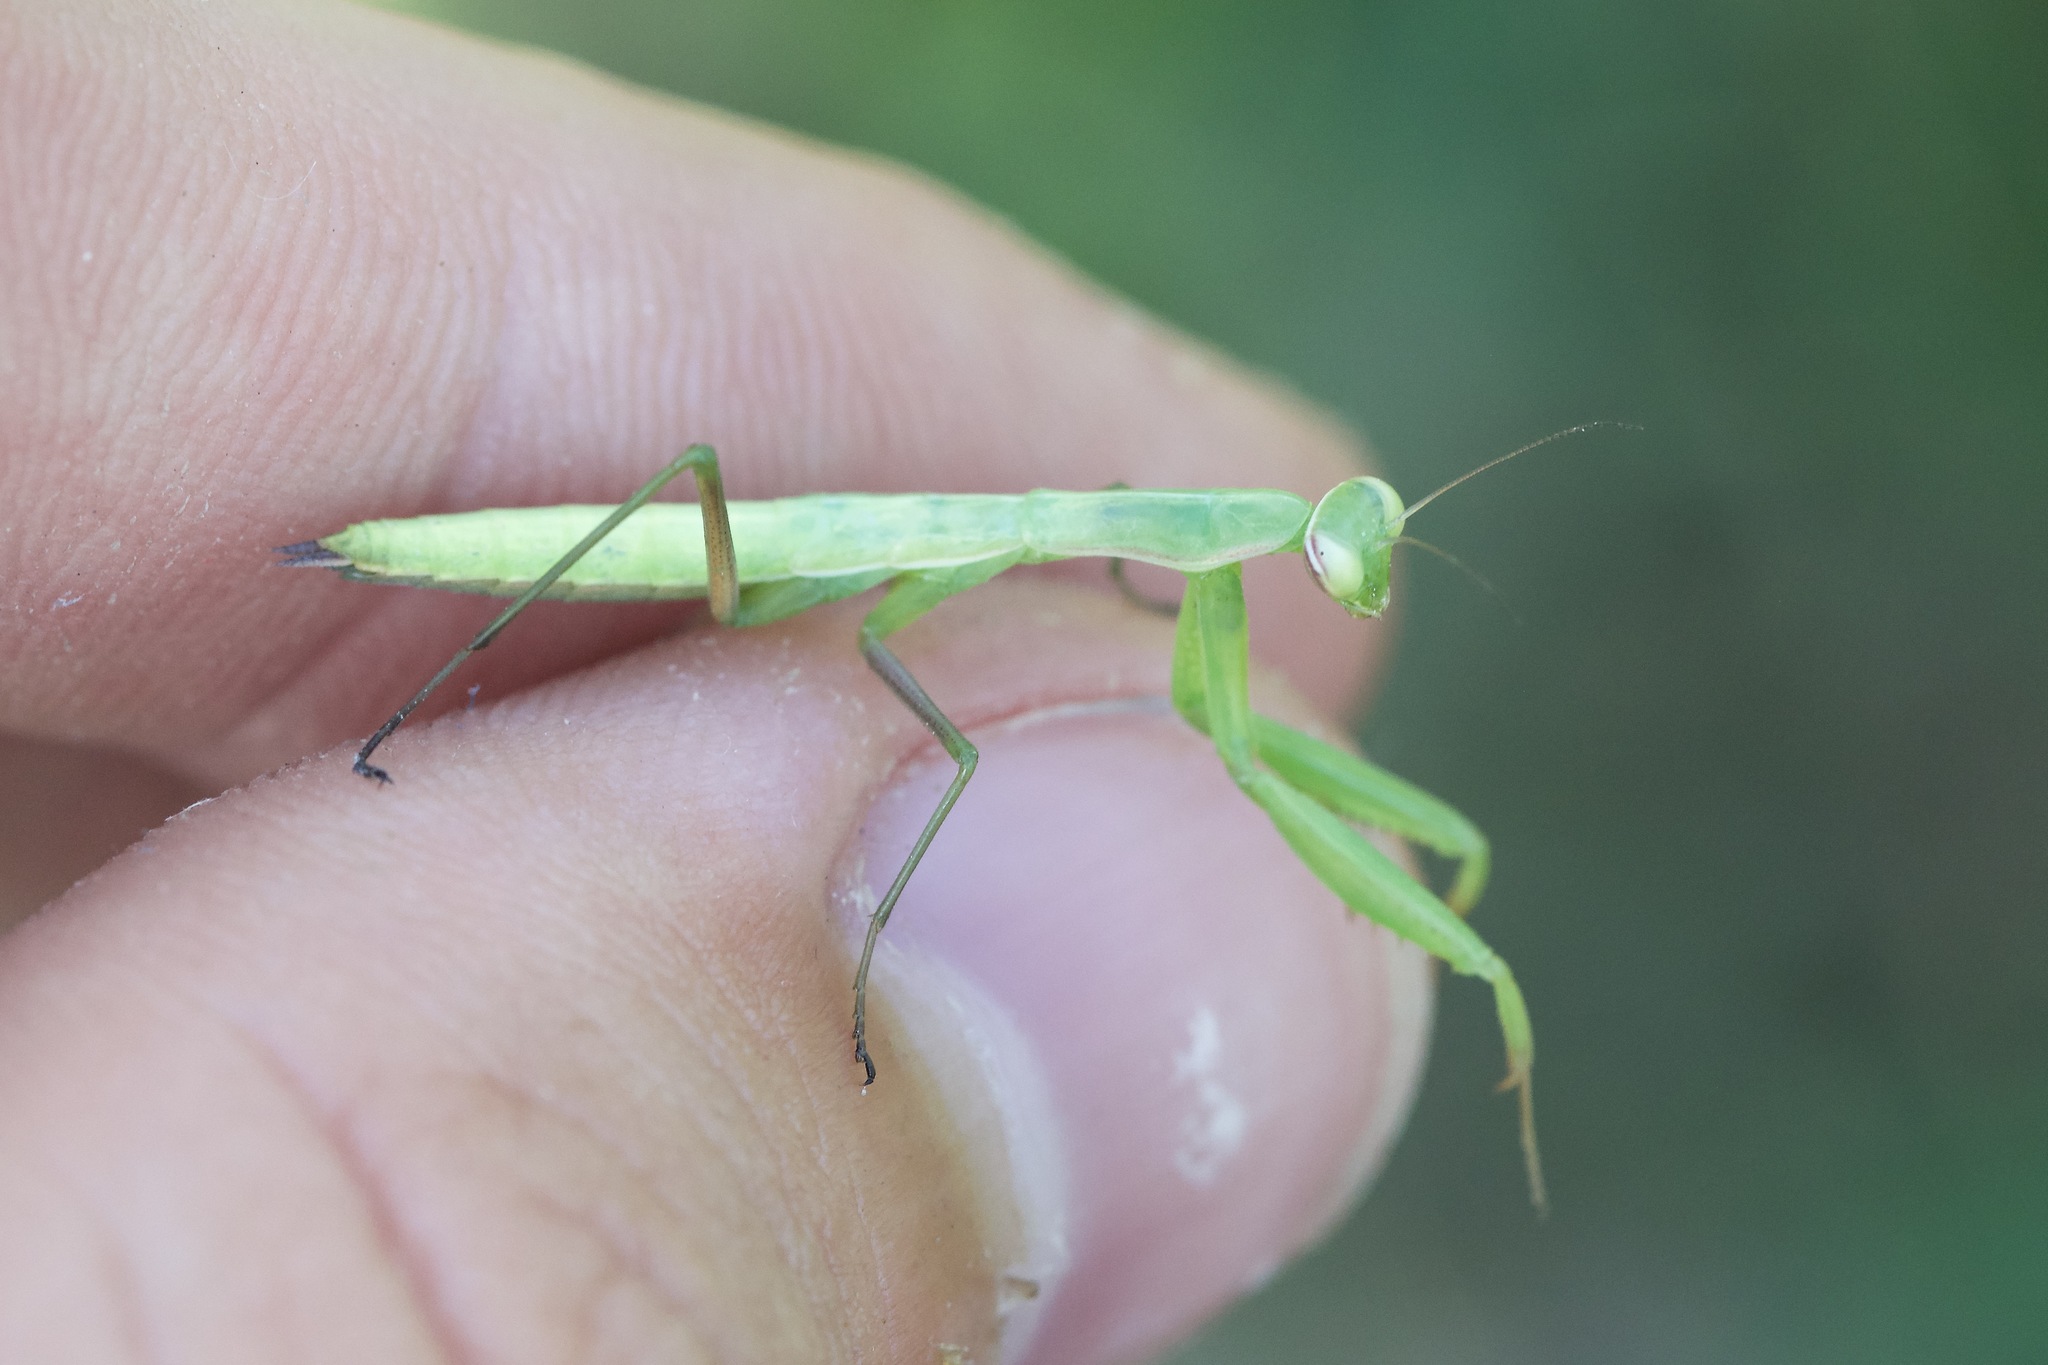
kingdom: Animalia
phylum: Arthropoda
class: Insecta
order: Mantodea
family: Mantidae
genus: Mantis
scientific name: Mantis religiosa
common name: Praying mantis
